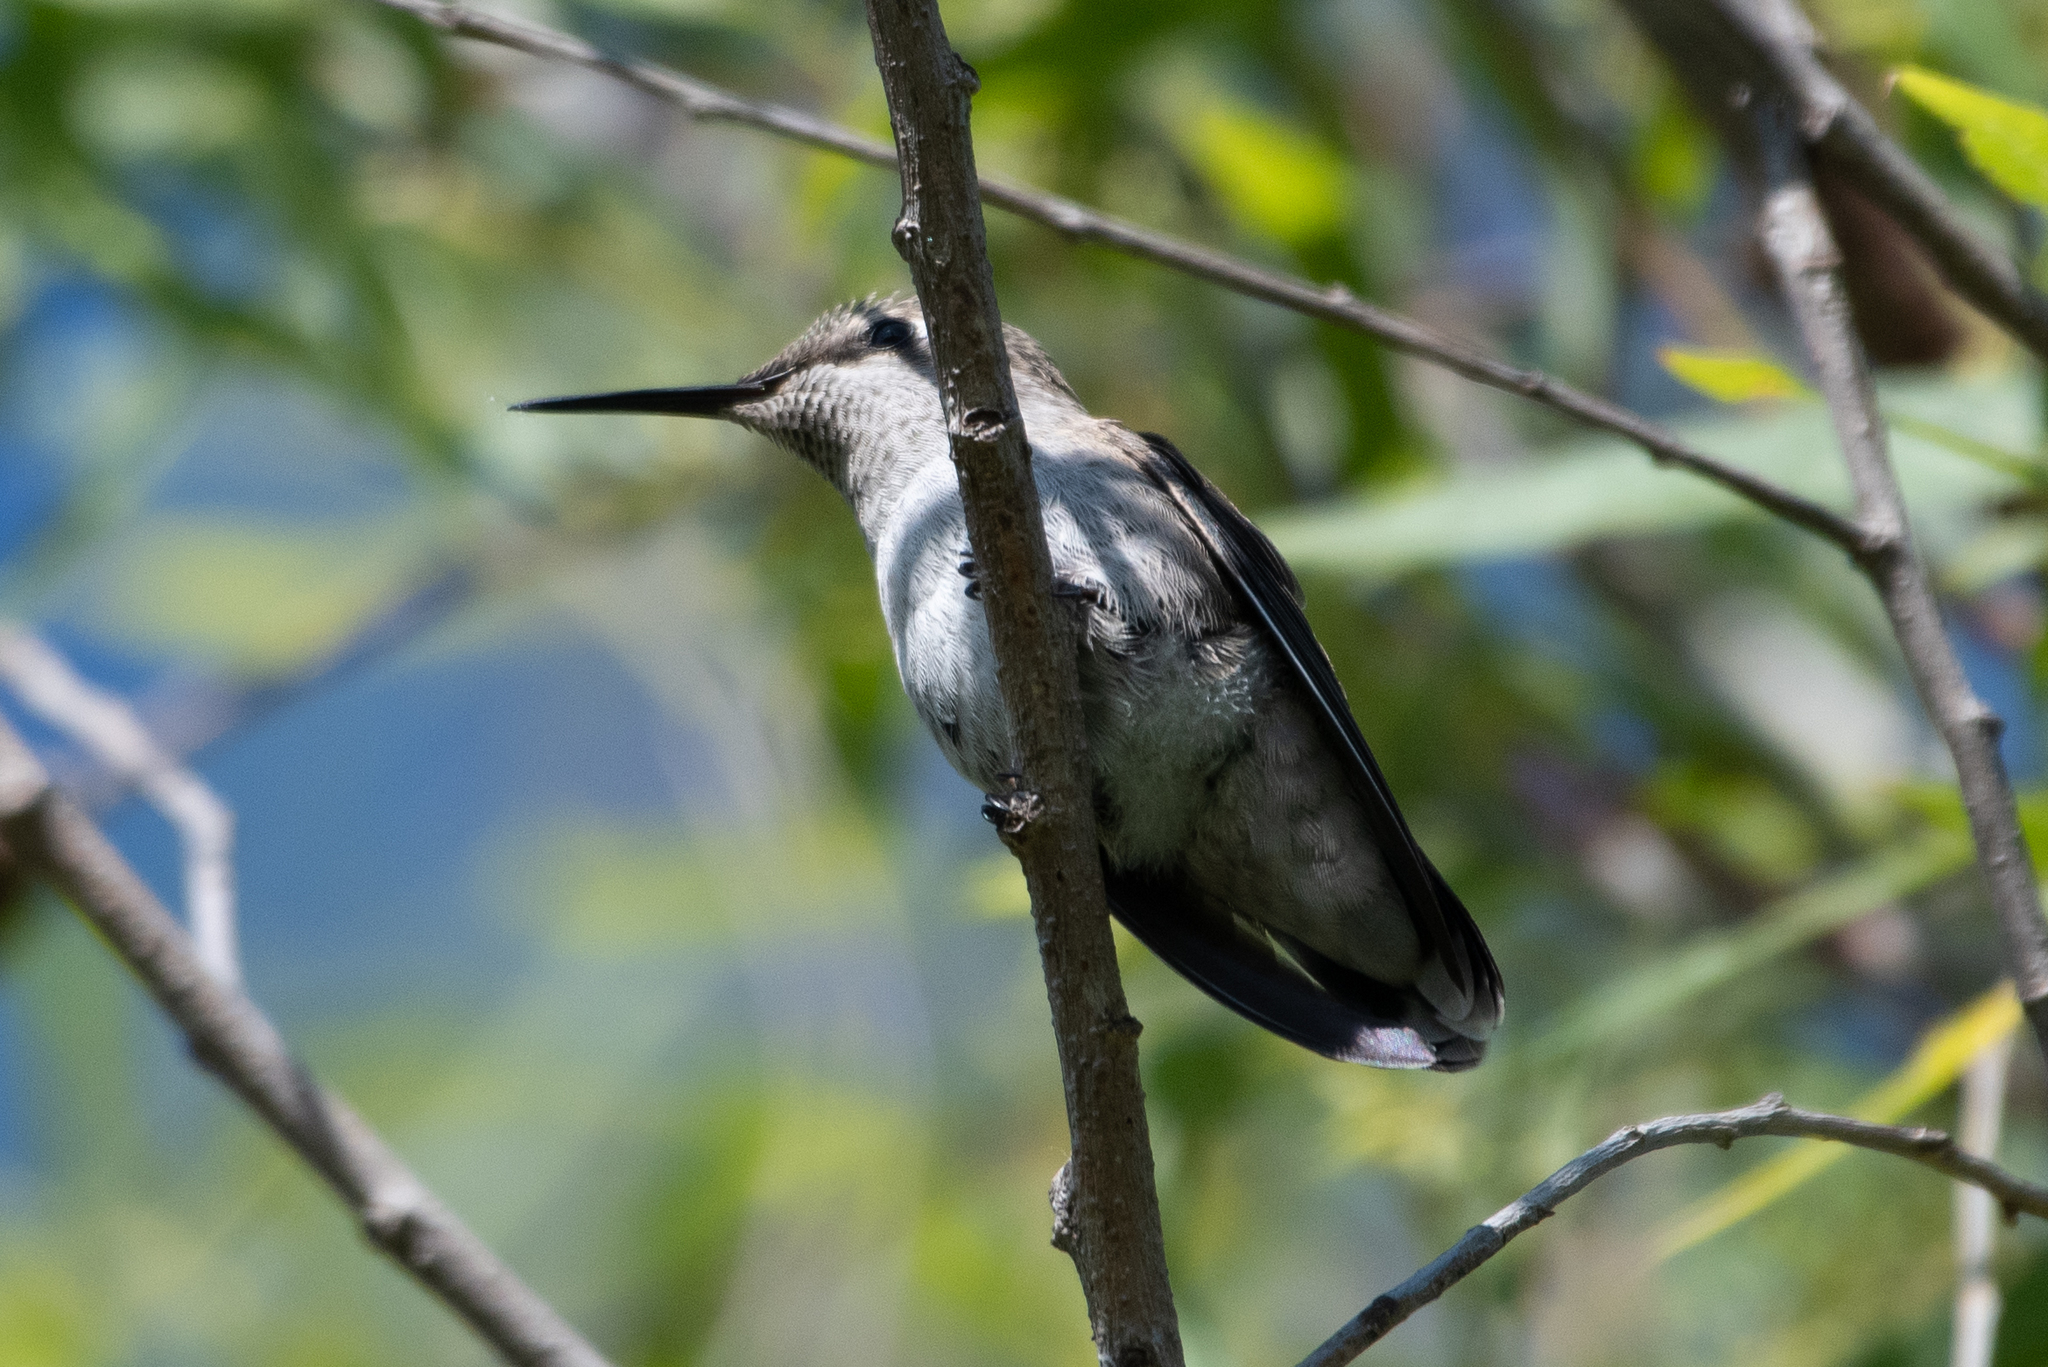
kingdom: Animalia
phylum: Chordata
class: Aves
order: Apodiformes
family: Trochilidae
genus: Calypte
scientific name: Calypte anna
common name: Anna's hummingbird
